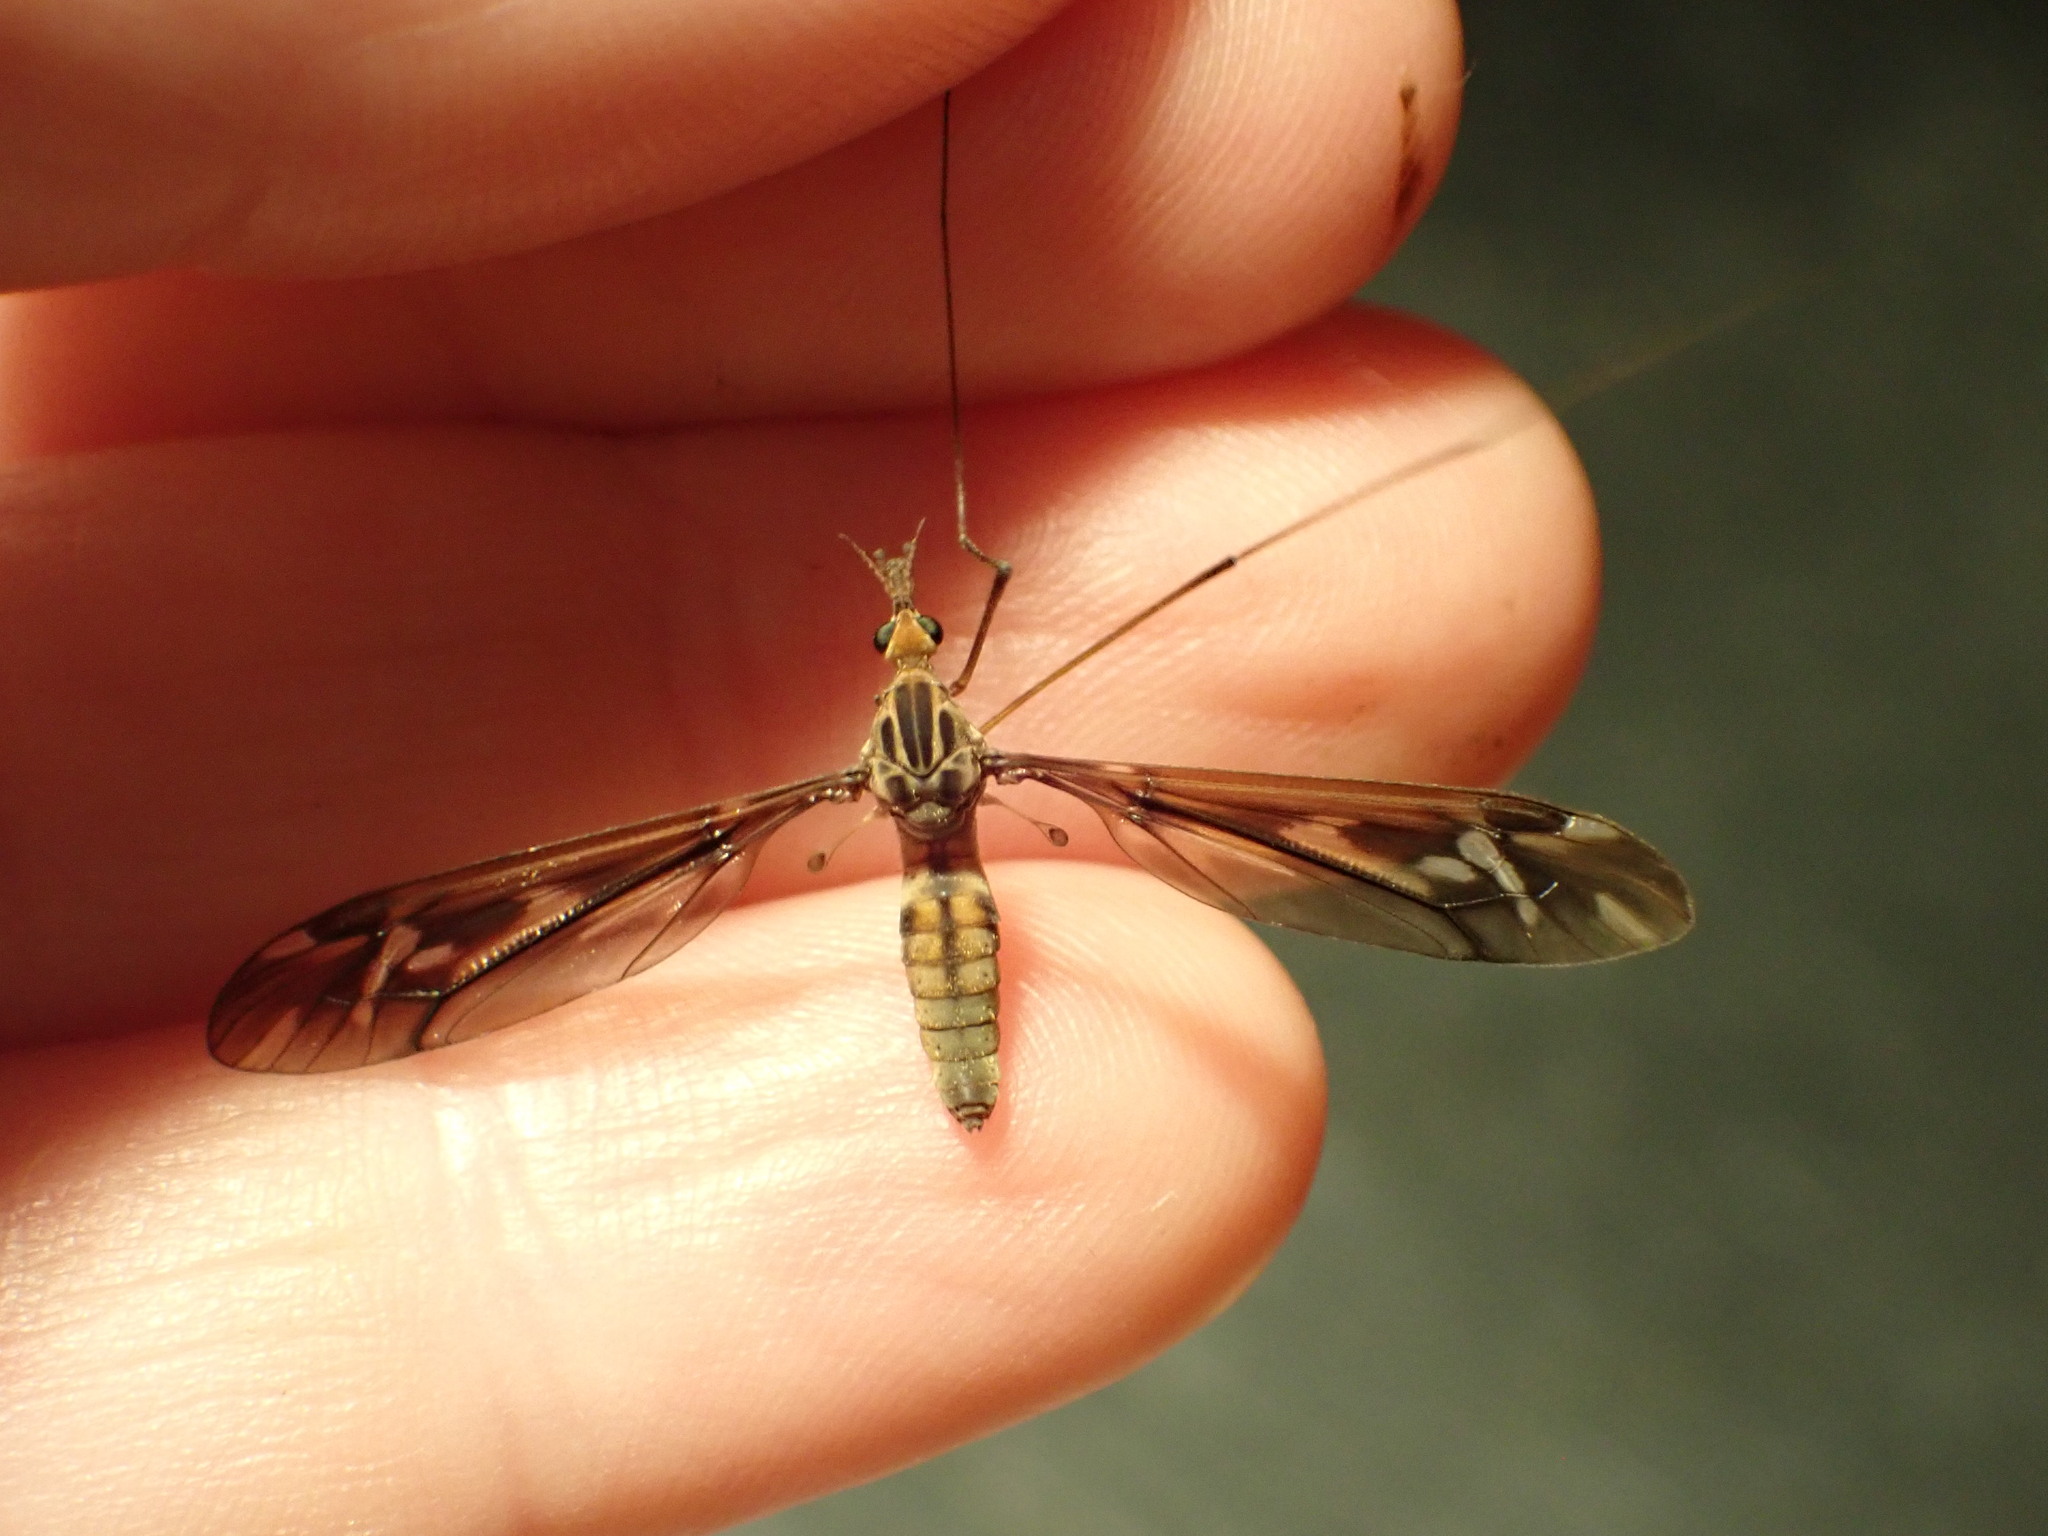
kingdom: Animalia
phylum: Arthropoda
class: Insecta
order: Diptera
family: Tipulidae
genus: Leptotarsus
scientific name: Leptotarsus huttoni
